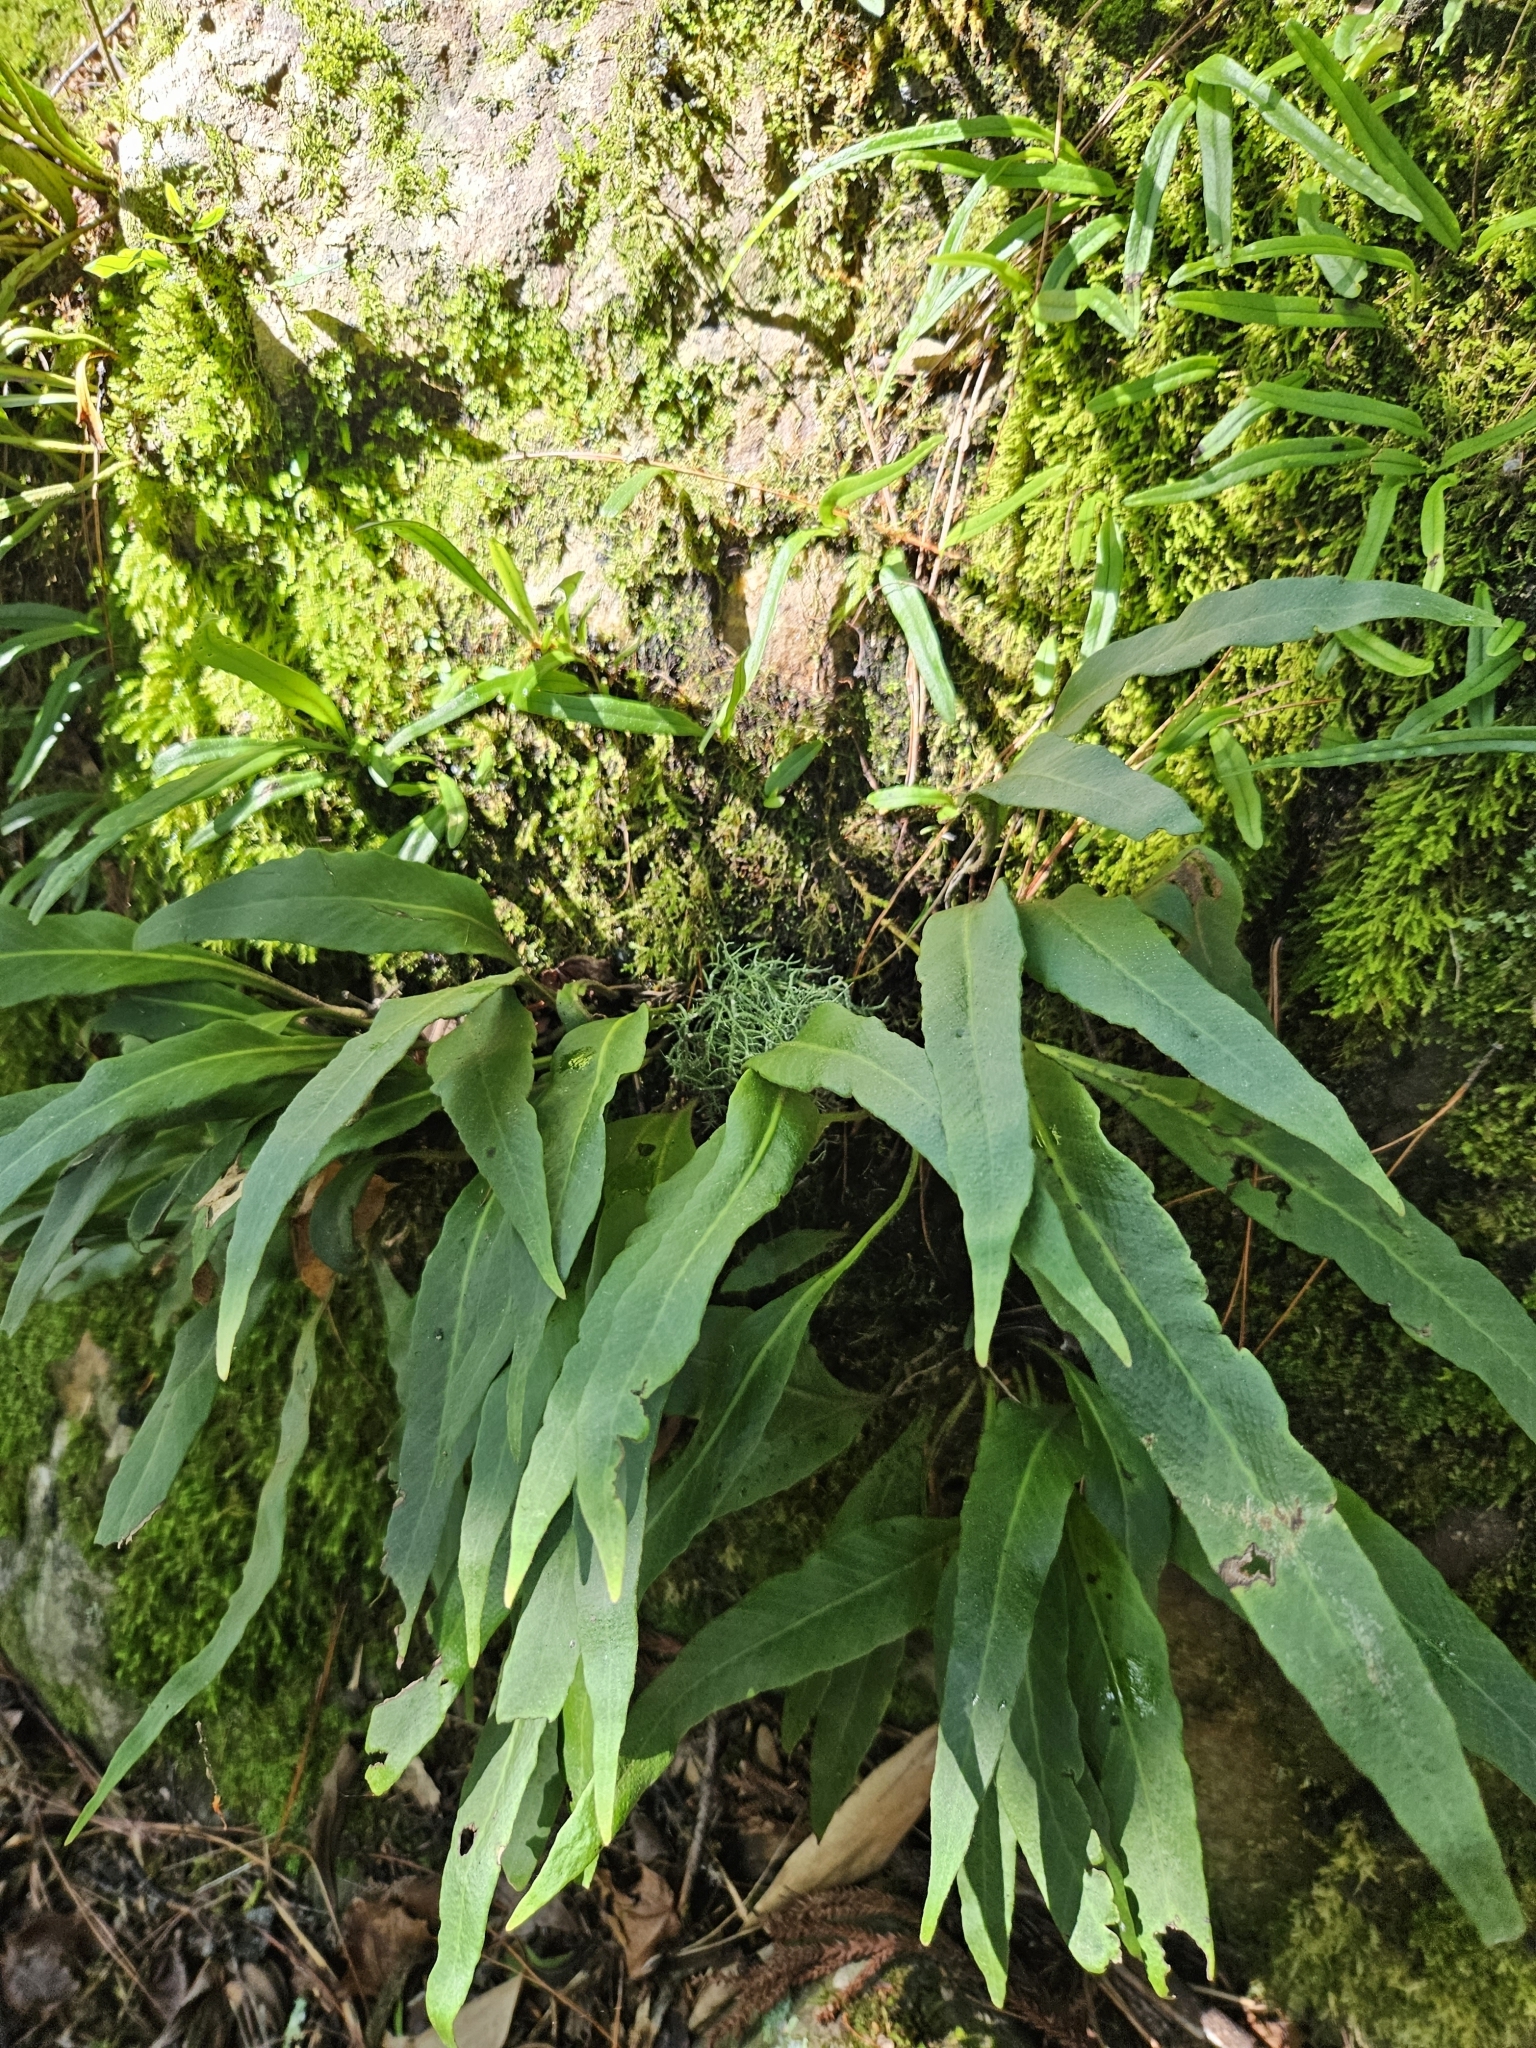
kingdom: Plantae
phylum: Tracheophyta
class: Polypodiopsida
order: Polypodiales
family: Polypodiaceae
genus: Pyrrosia
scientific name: Pyrrosia porosa
